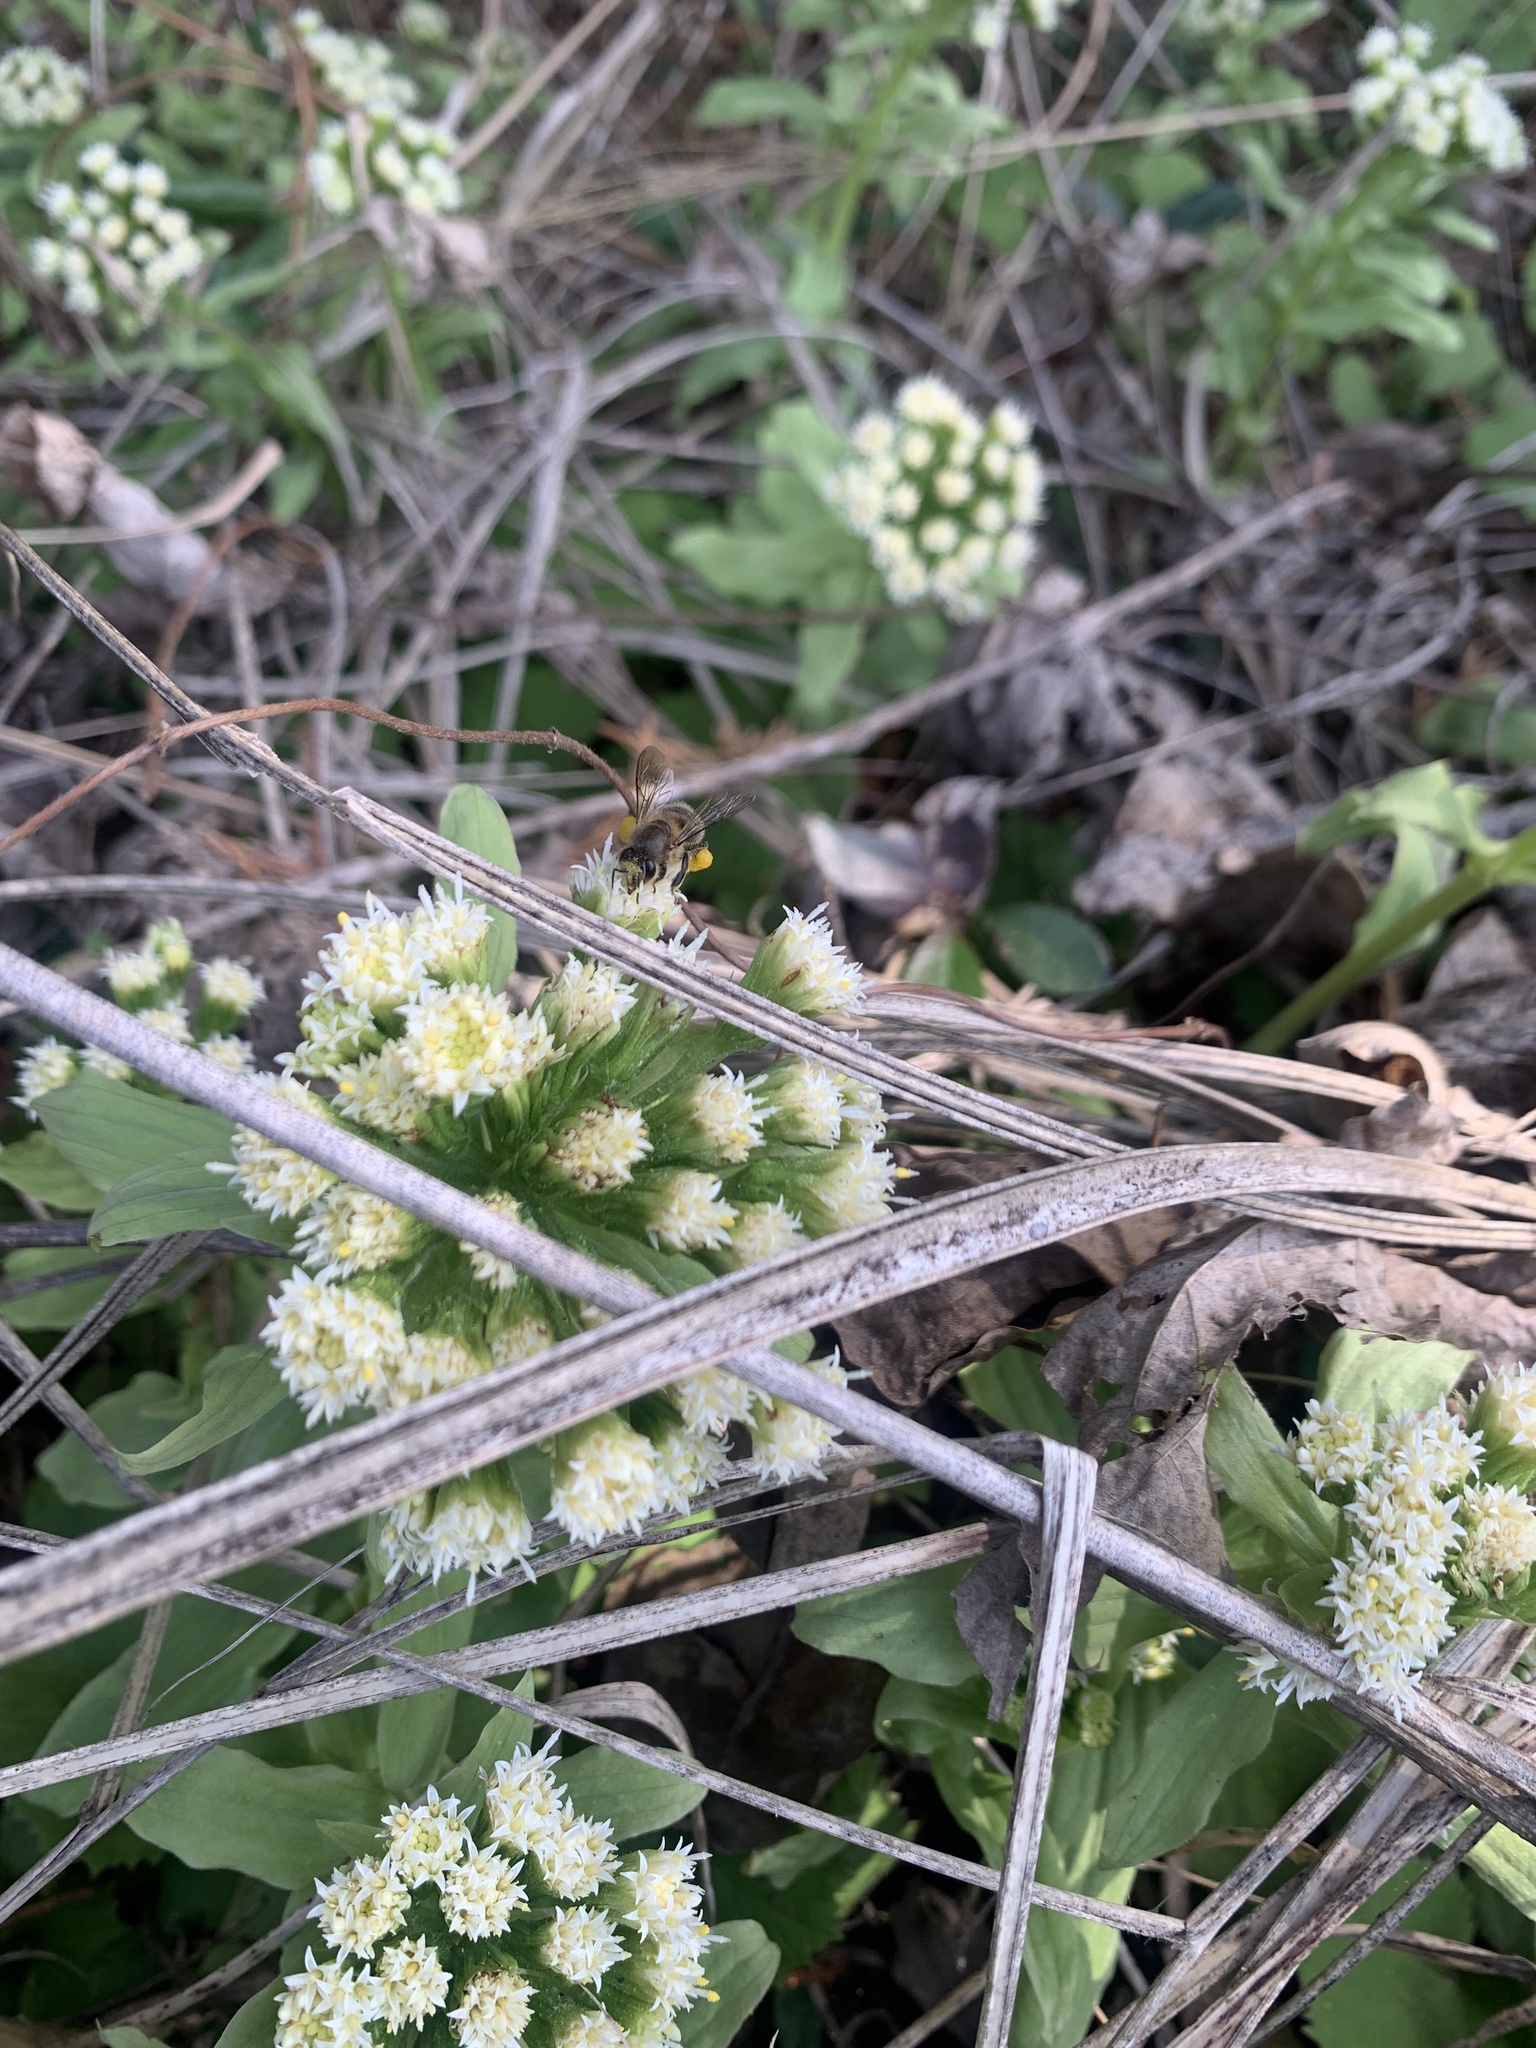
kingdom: Animalia
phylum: Arthropoda
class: Insecta
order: Hymenoptera
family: Apidae
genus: Apis
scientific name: Apis cerana
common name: Honey bee
